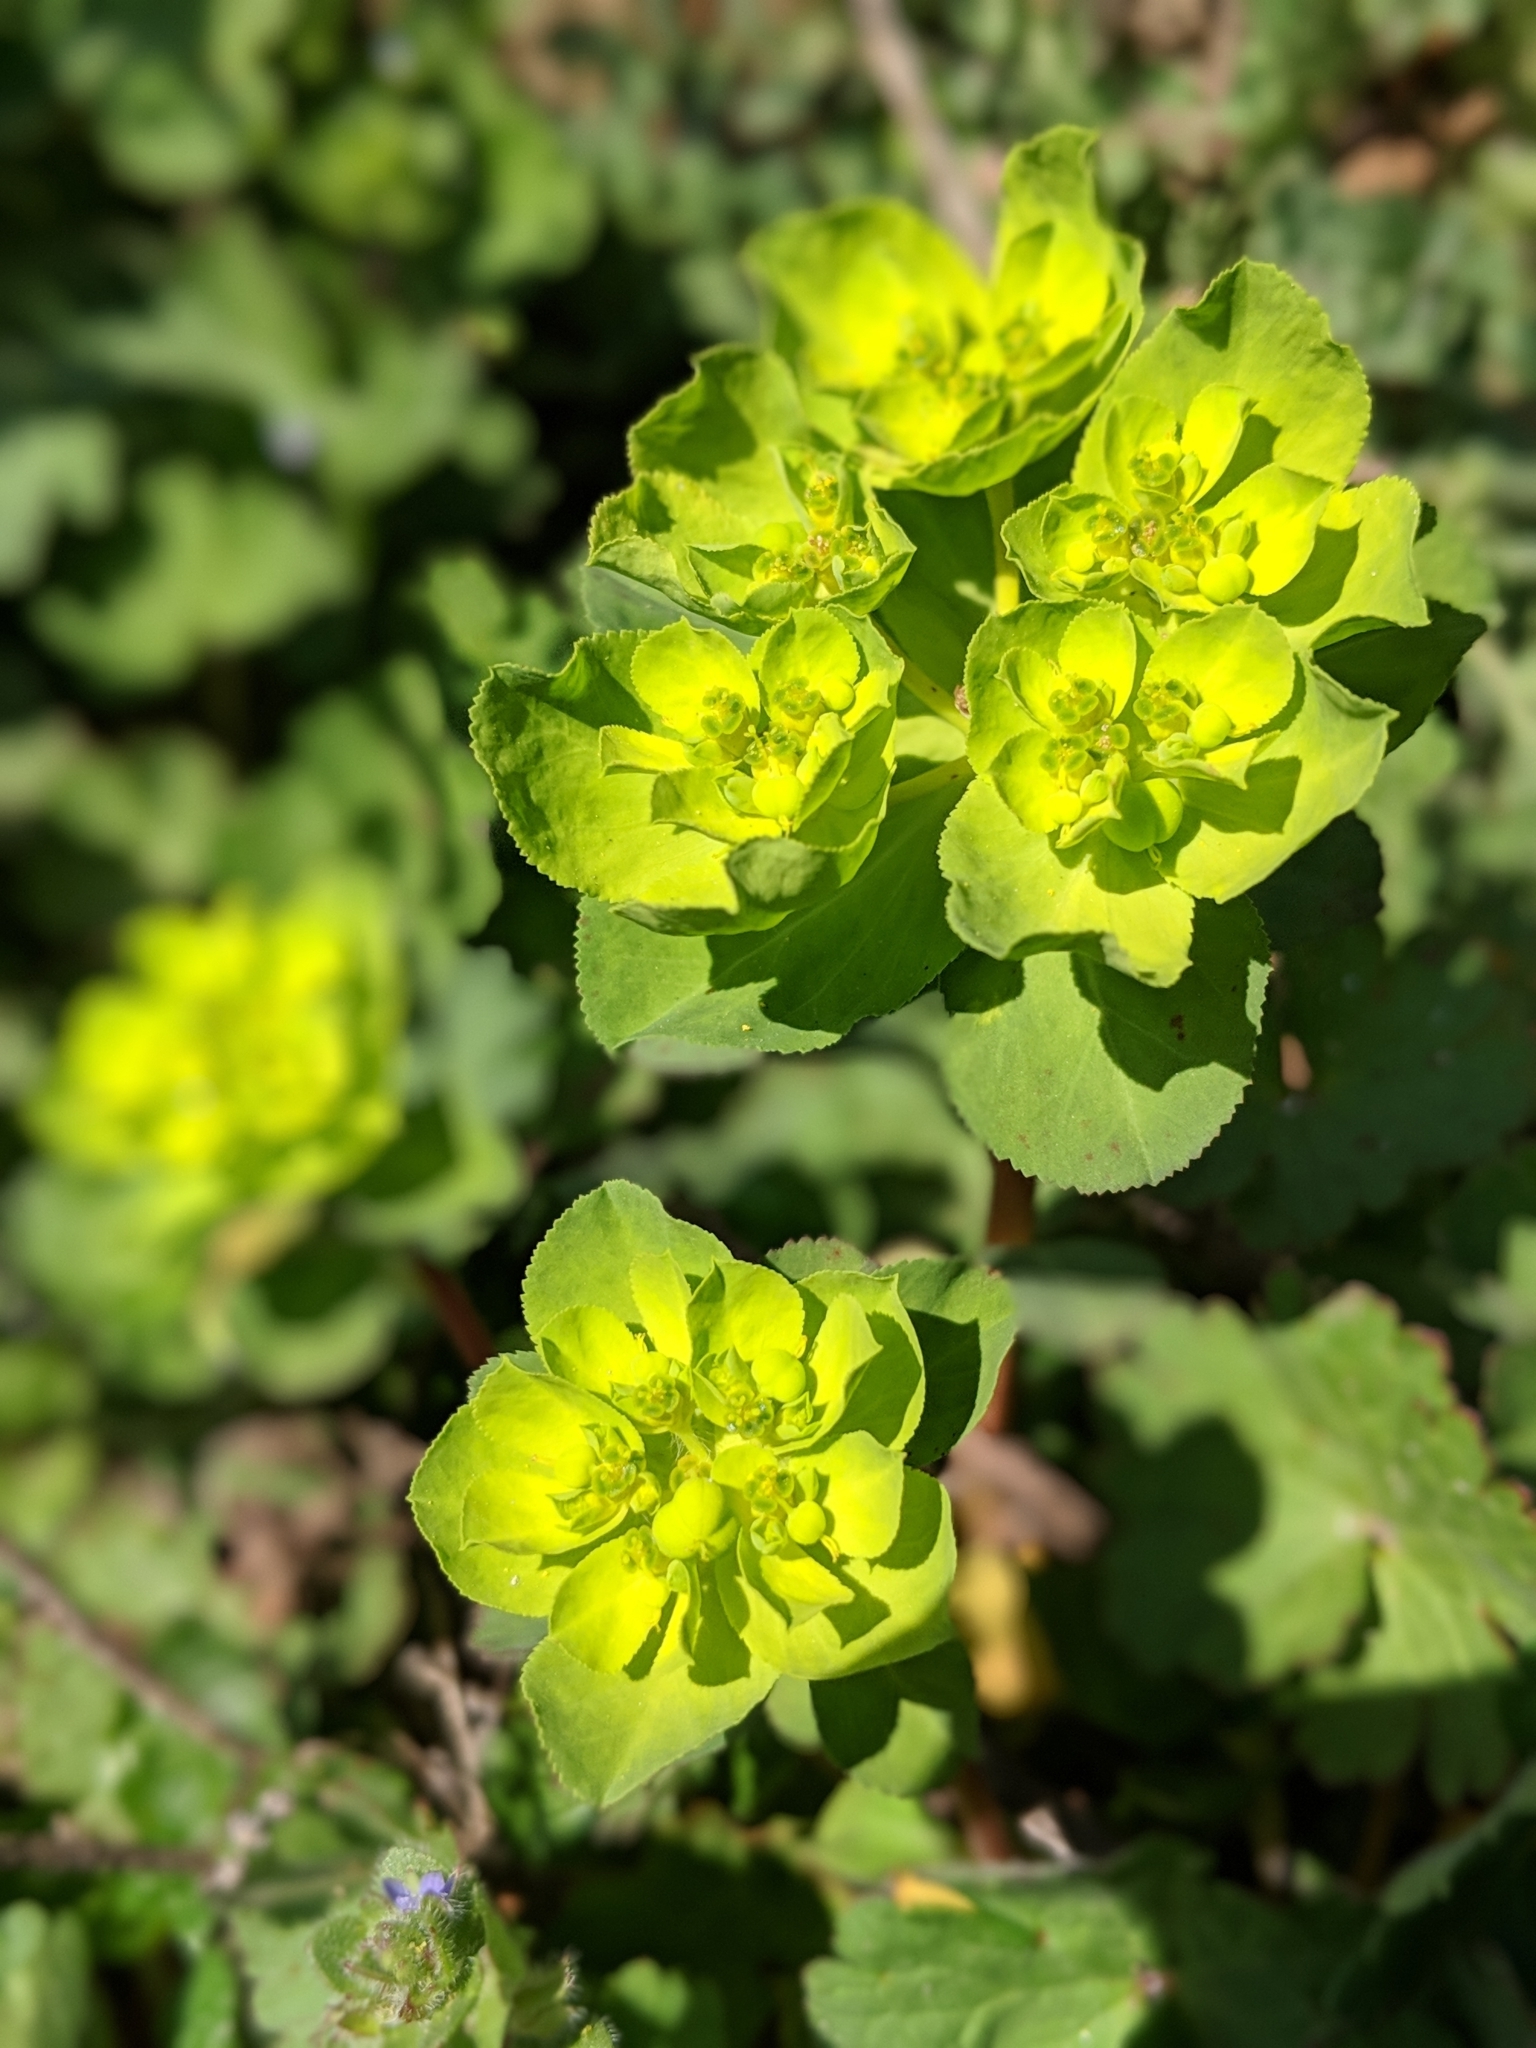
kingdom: Plantae
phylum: Tracheophyta
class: Magnoliopsida
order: Malpighiales
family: Euphorbiaceae
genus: Euphorbia
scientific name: Euphorbia helioscopia
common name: Sun spurge
